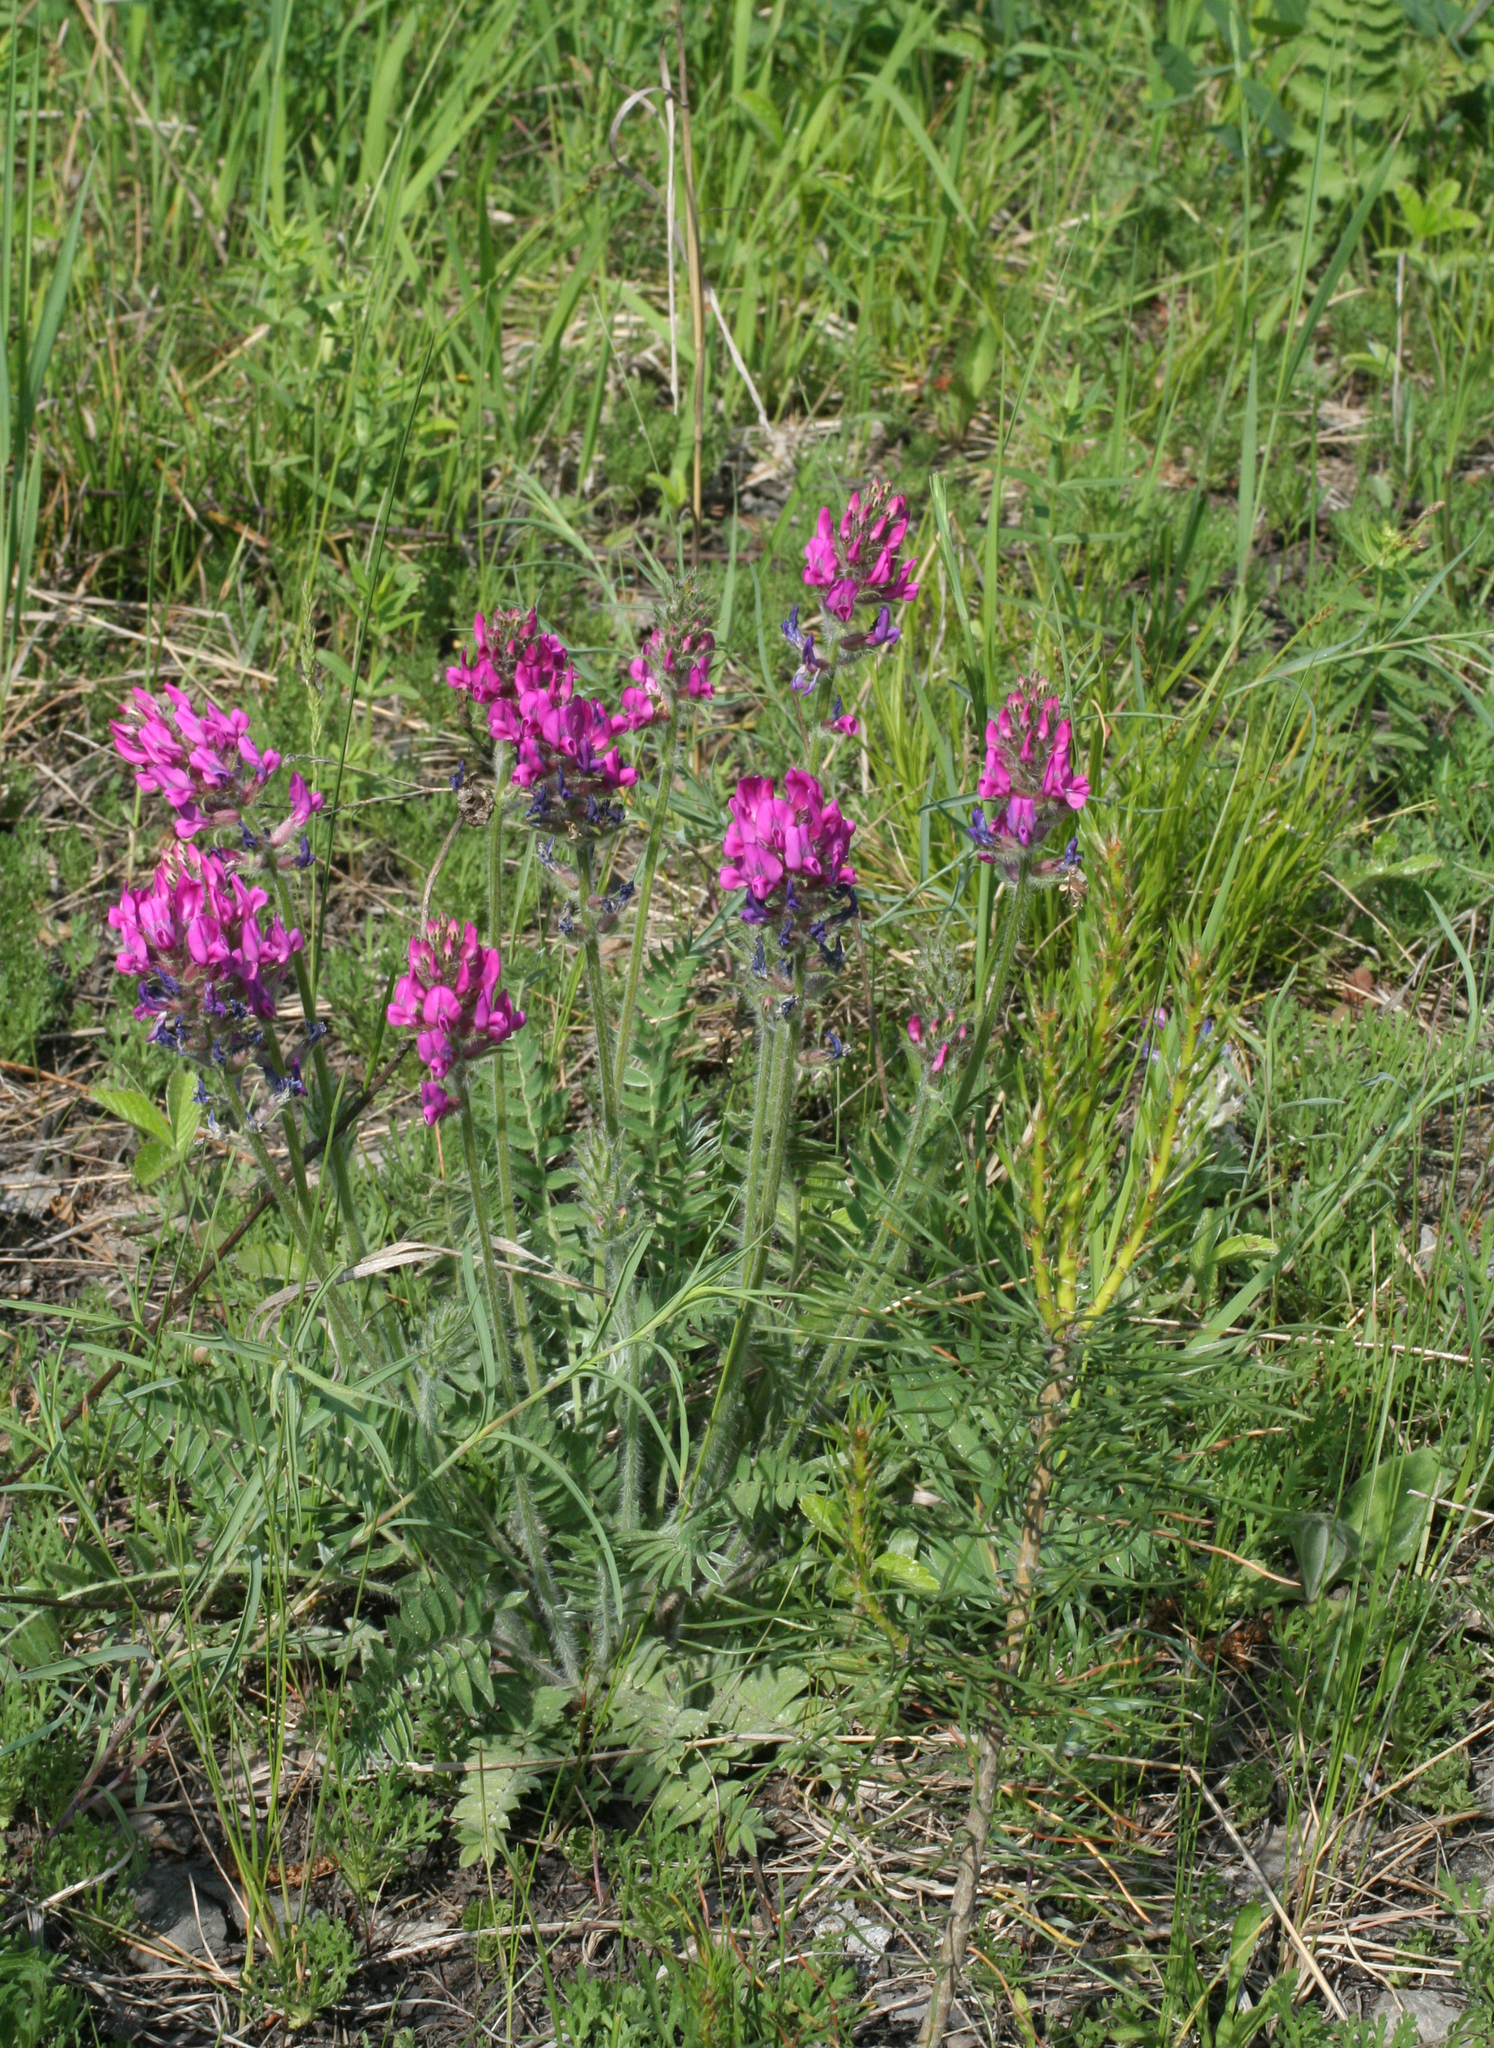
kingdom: Plantae
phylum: Tracheophyta
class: Magnoliopsida
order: Fabales
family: Fabaceae
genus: Oxytropis
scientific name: Oxytropis campanulata
